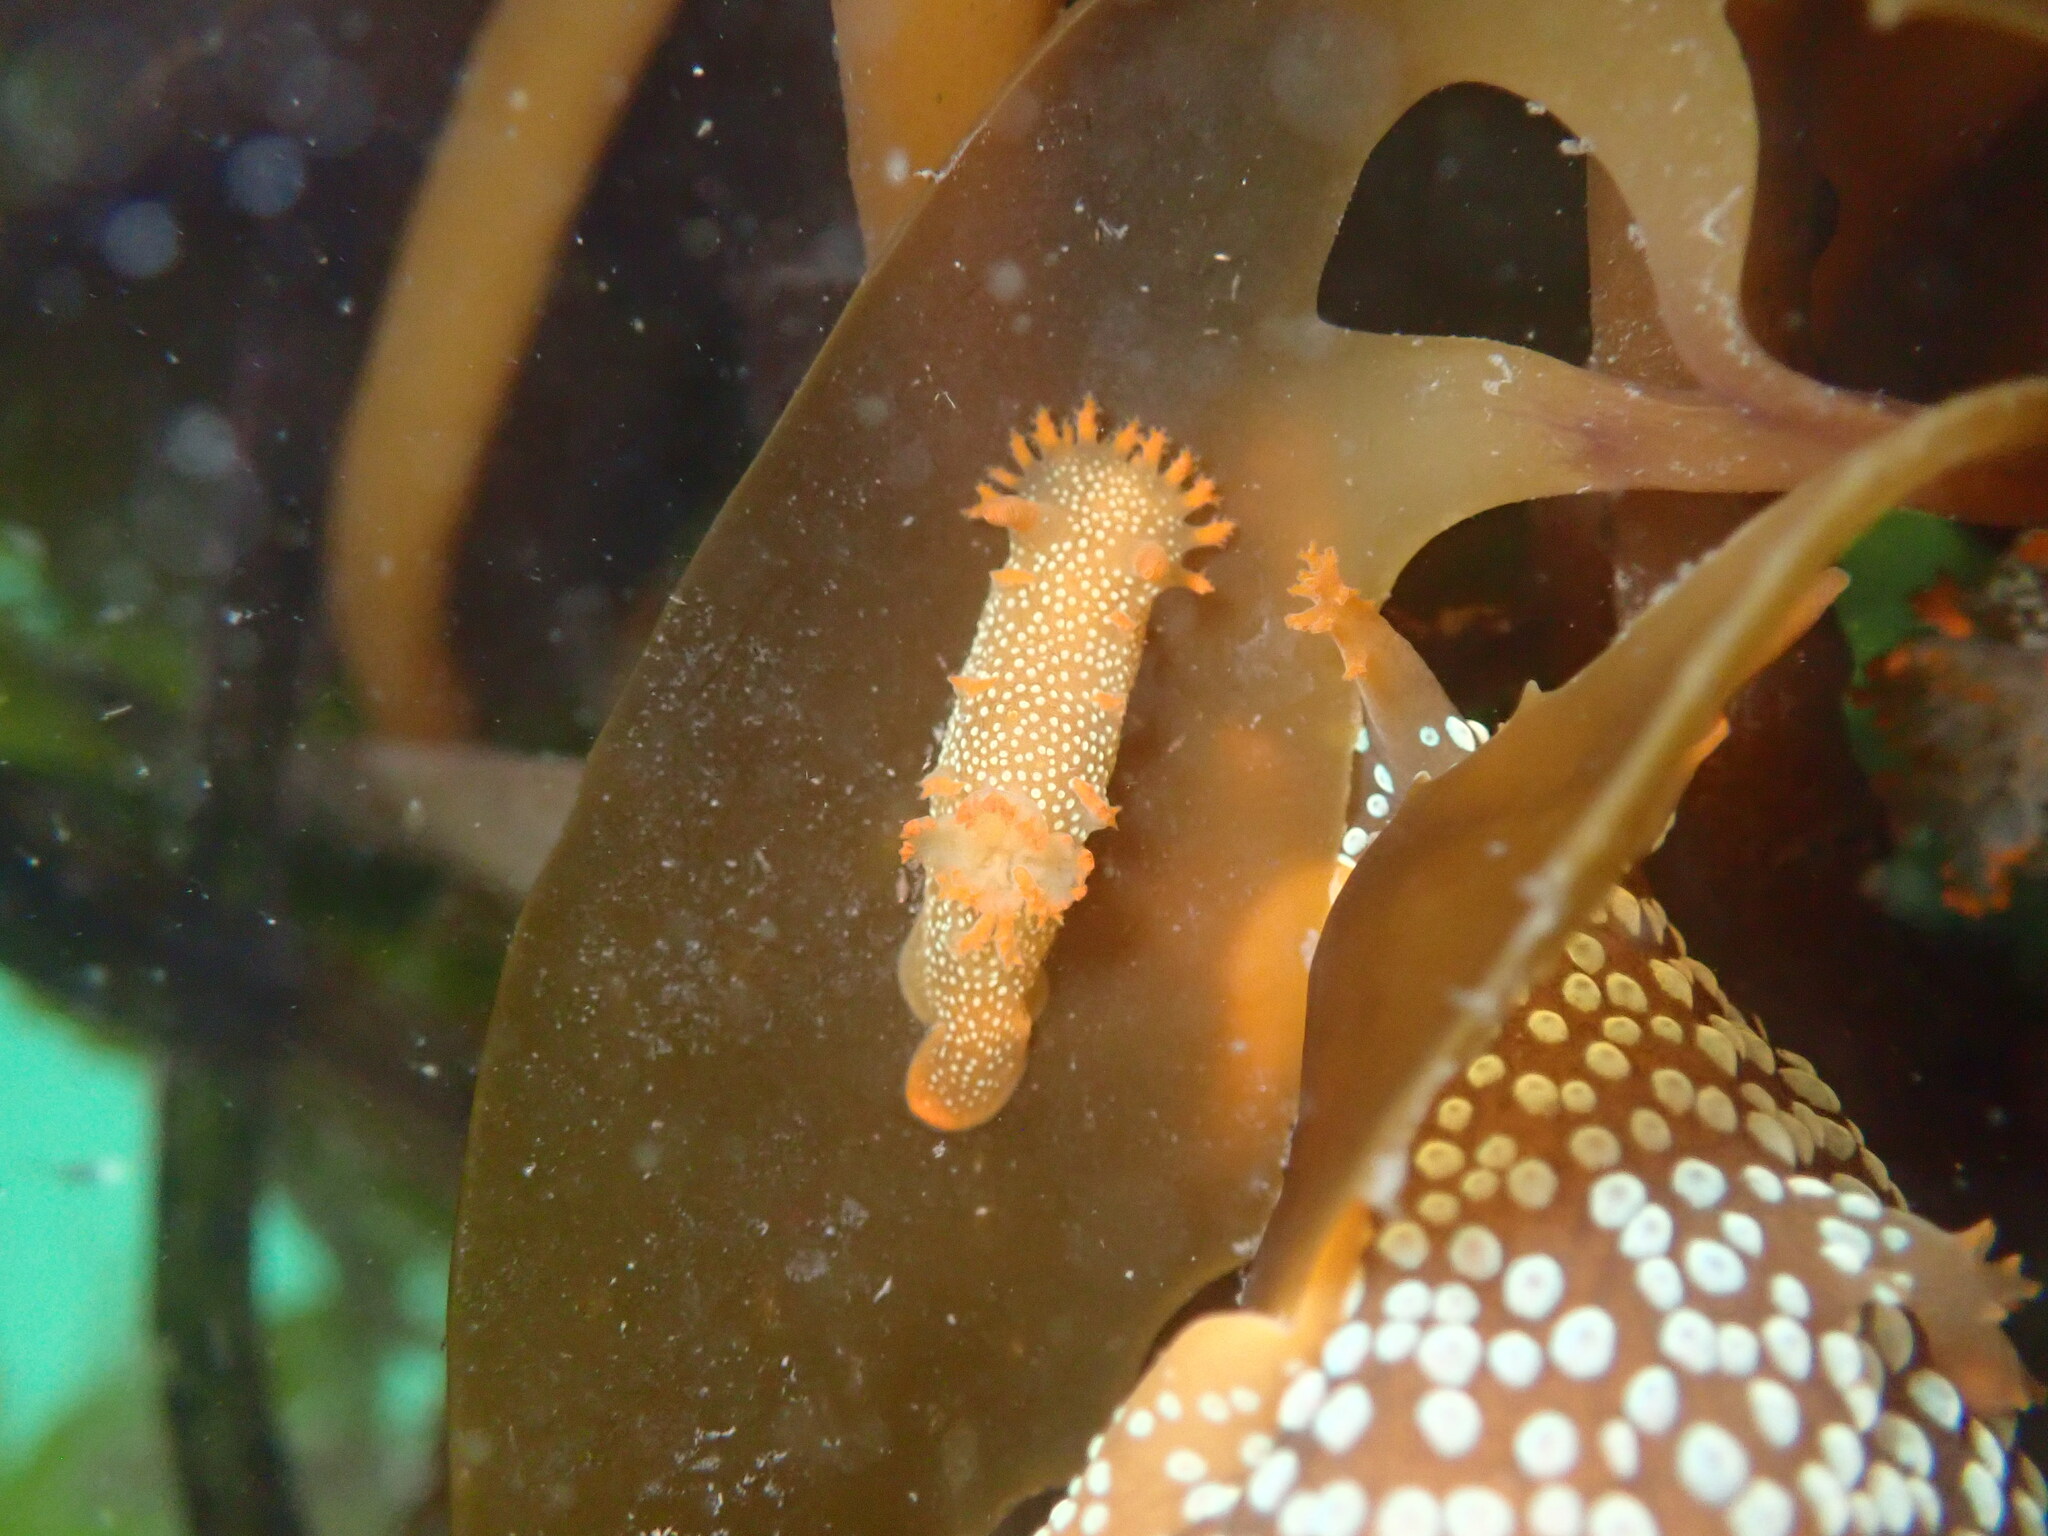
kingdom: Animalia
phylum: Mollusca
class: Gastropoda
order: Nudibranchia
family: Polyceridae
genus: Triopha
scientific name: Triopha maculata
